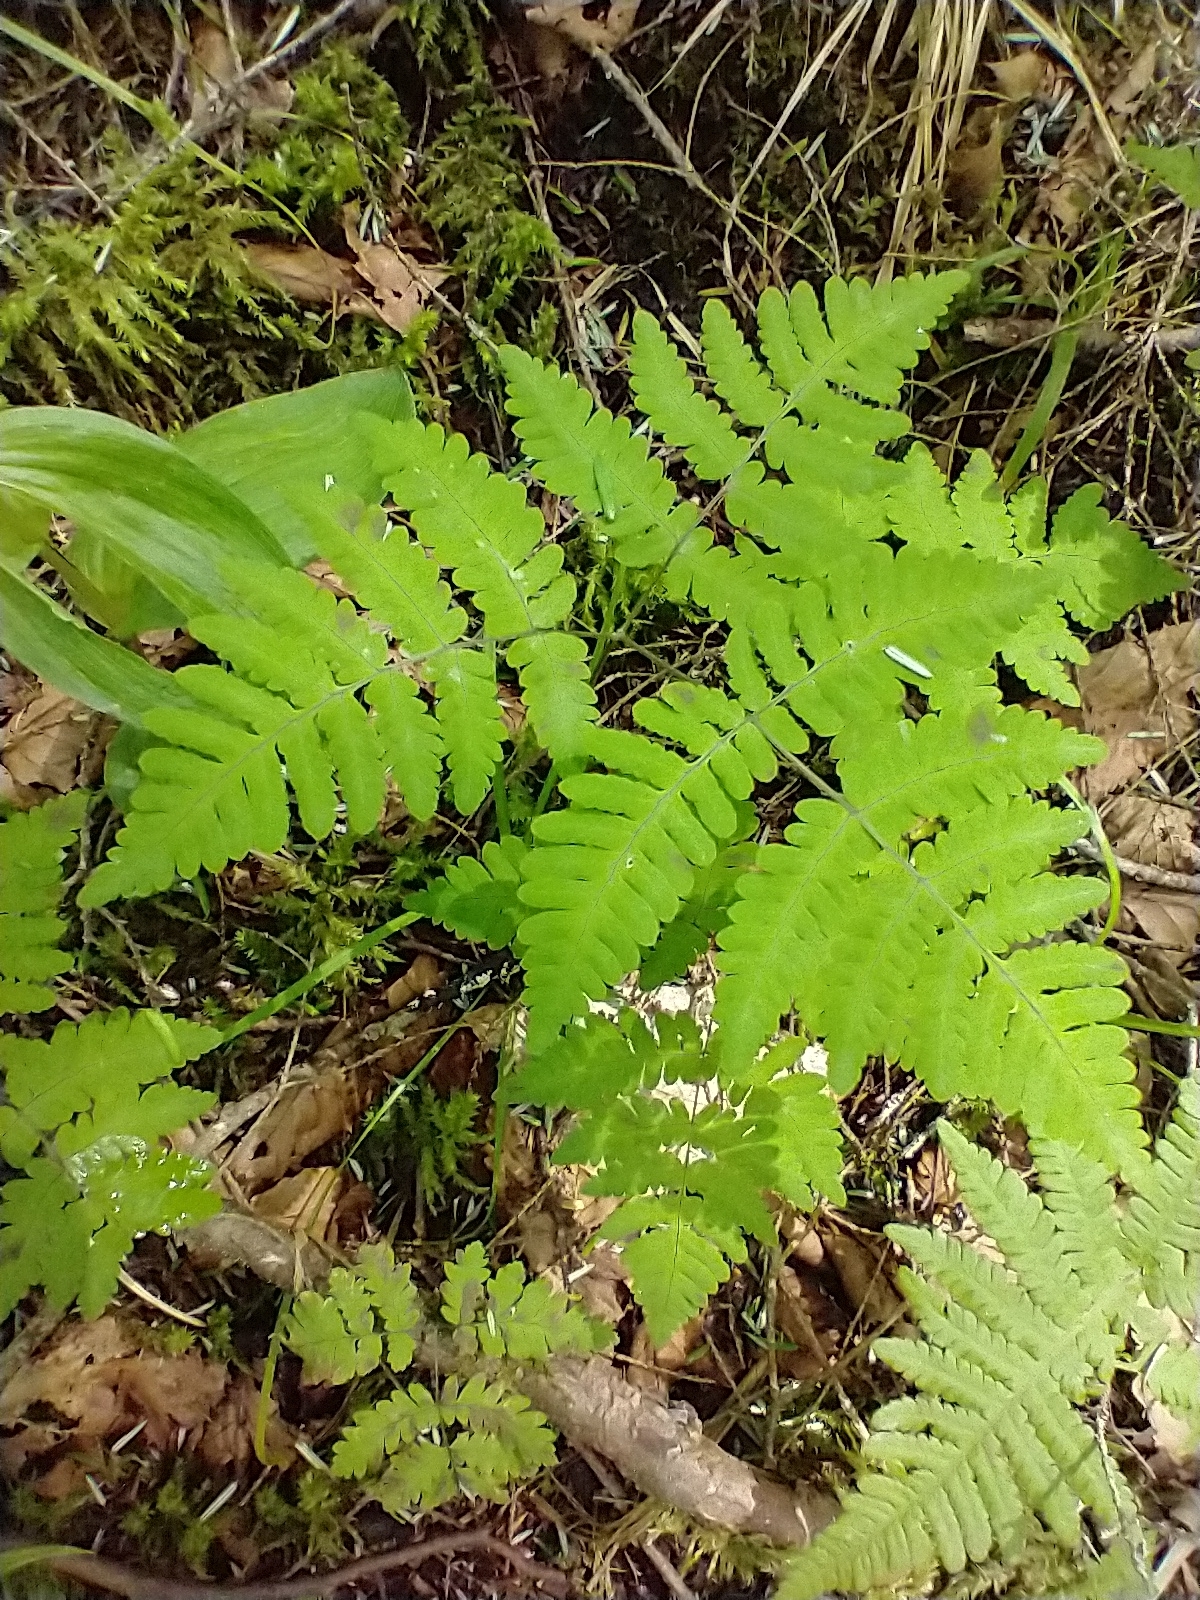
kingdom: Plantae
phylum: Tracheophyta
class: Polypodiopsida
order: Polypodiales
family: Cystopteridaceae
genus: Gymnocarpium
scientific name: Gymnocarpium dryopteris
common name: Oak fern
